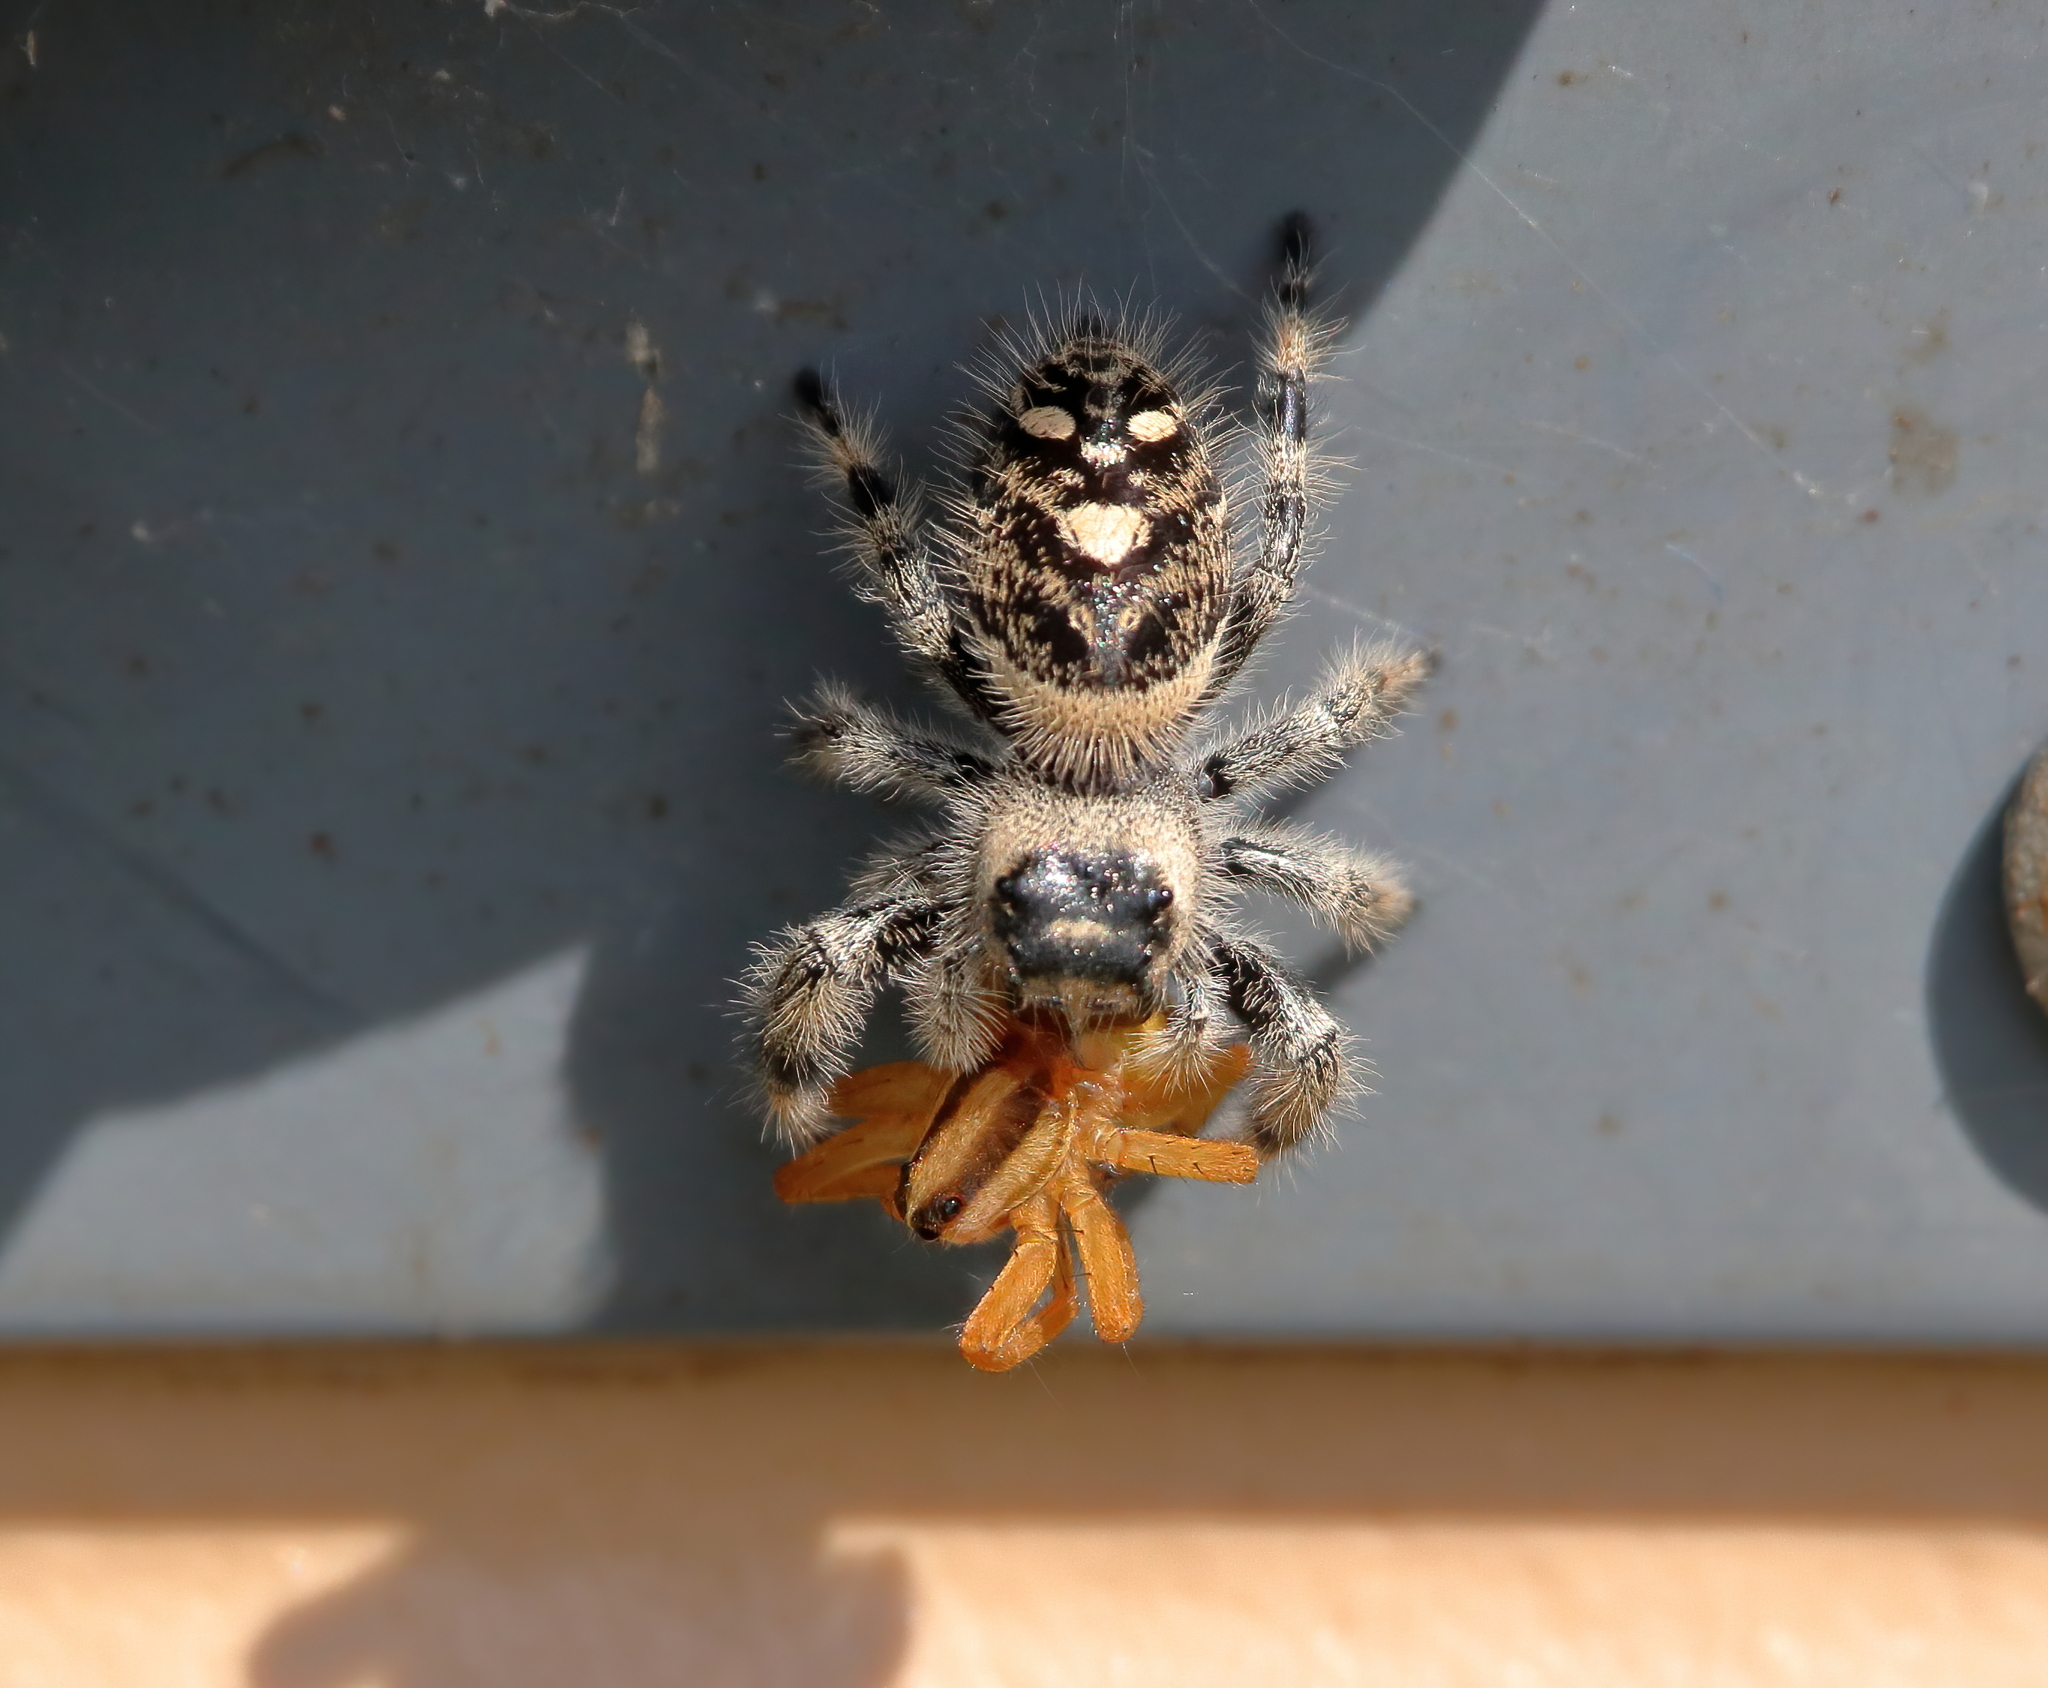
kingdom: Animalia
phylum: Arthropoda
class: Arachnida
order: Araneae
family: Salticidae
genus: Phidippus
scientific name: Phidippus regius
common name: Regal jumper
